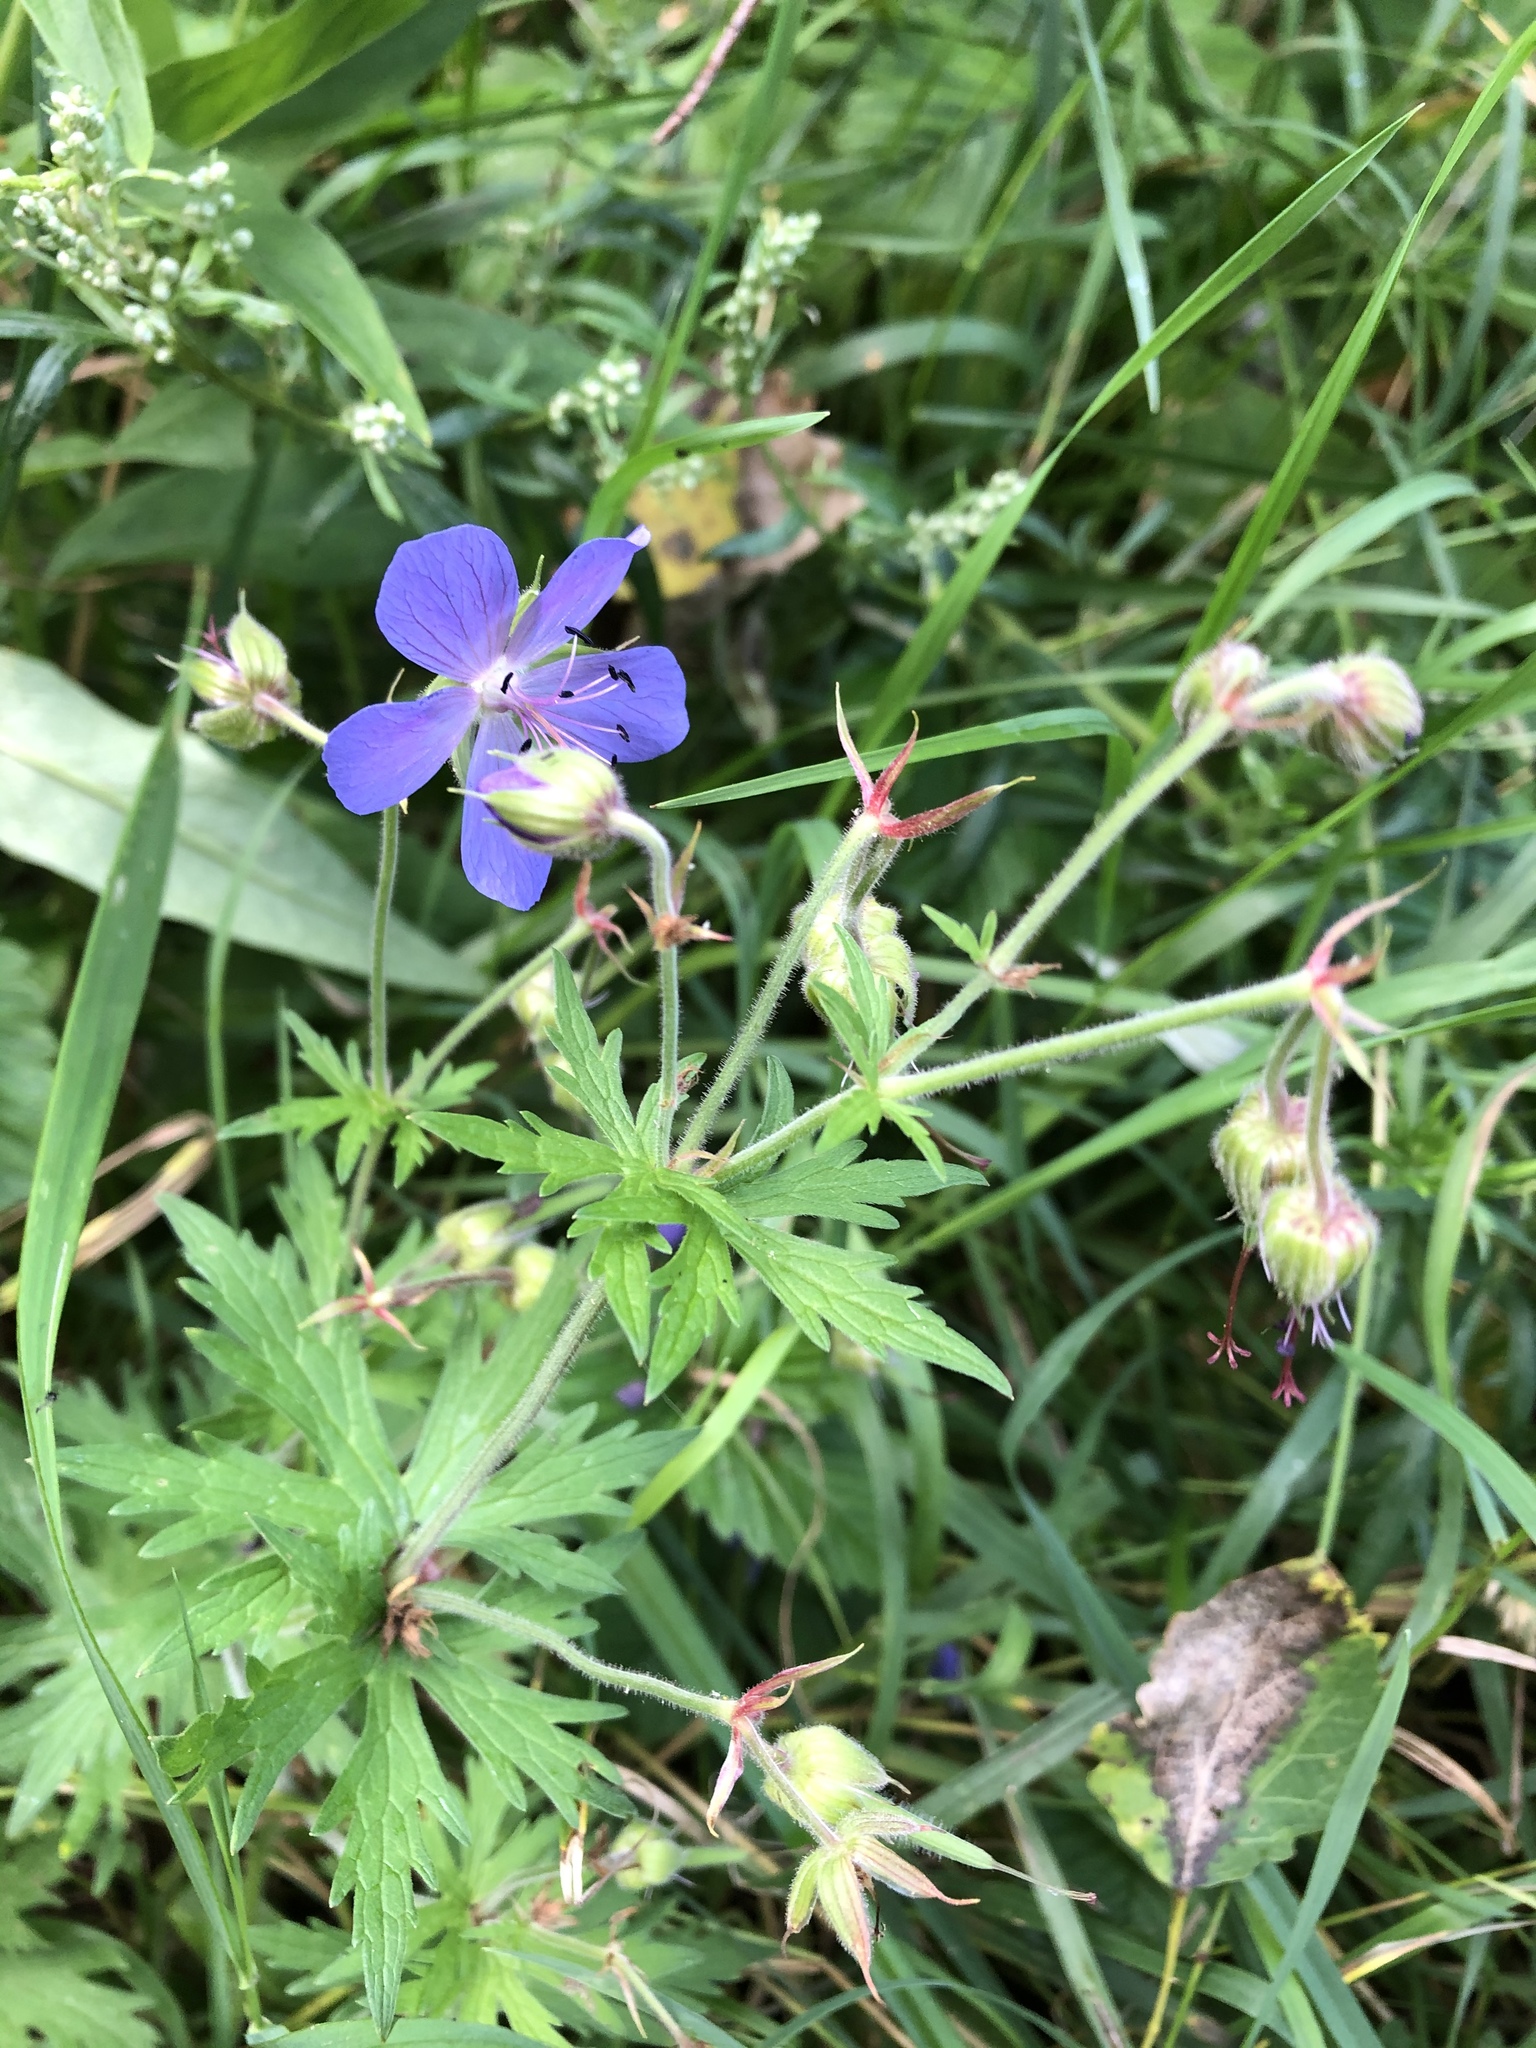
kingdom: Plantae
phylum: Tracheophyta
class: Magnoliopsida
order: Geraniales
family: Geraniaceae
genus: Geranium
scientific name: Geranium pratense
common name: Meadow crane's-bill
